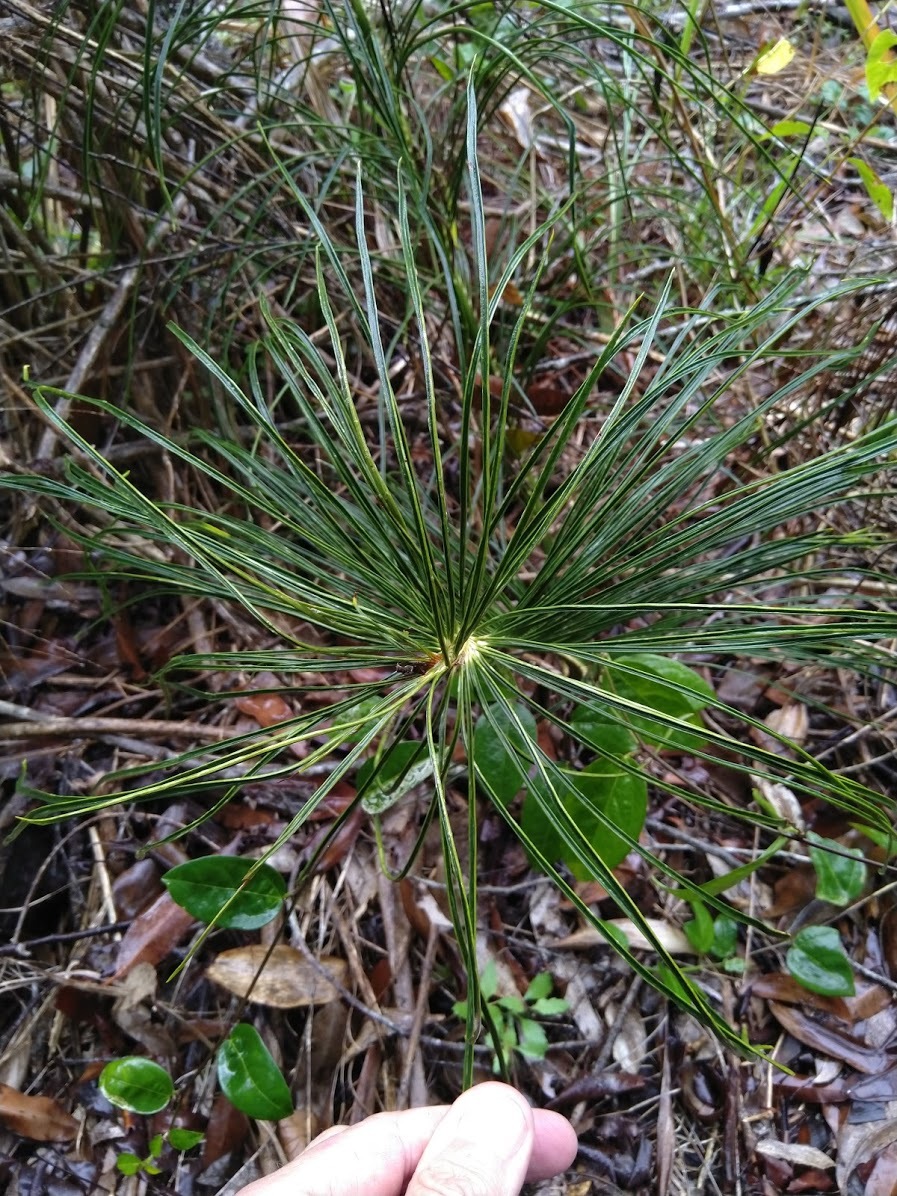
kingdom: Plantae
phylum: Tracheophyta
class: Cycadopsida
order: Cycadales
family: Zamiaceae
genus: Macrozamia
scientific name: Macrozamia pauli-guilielmi
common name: Pineapple zamia
